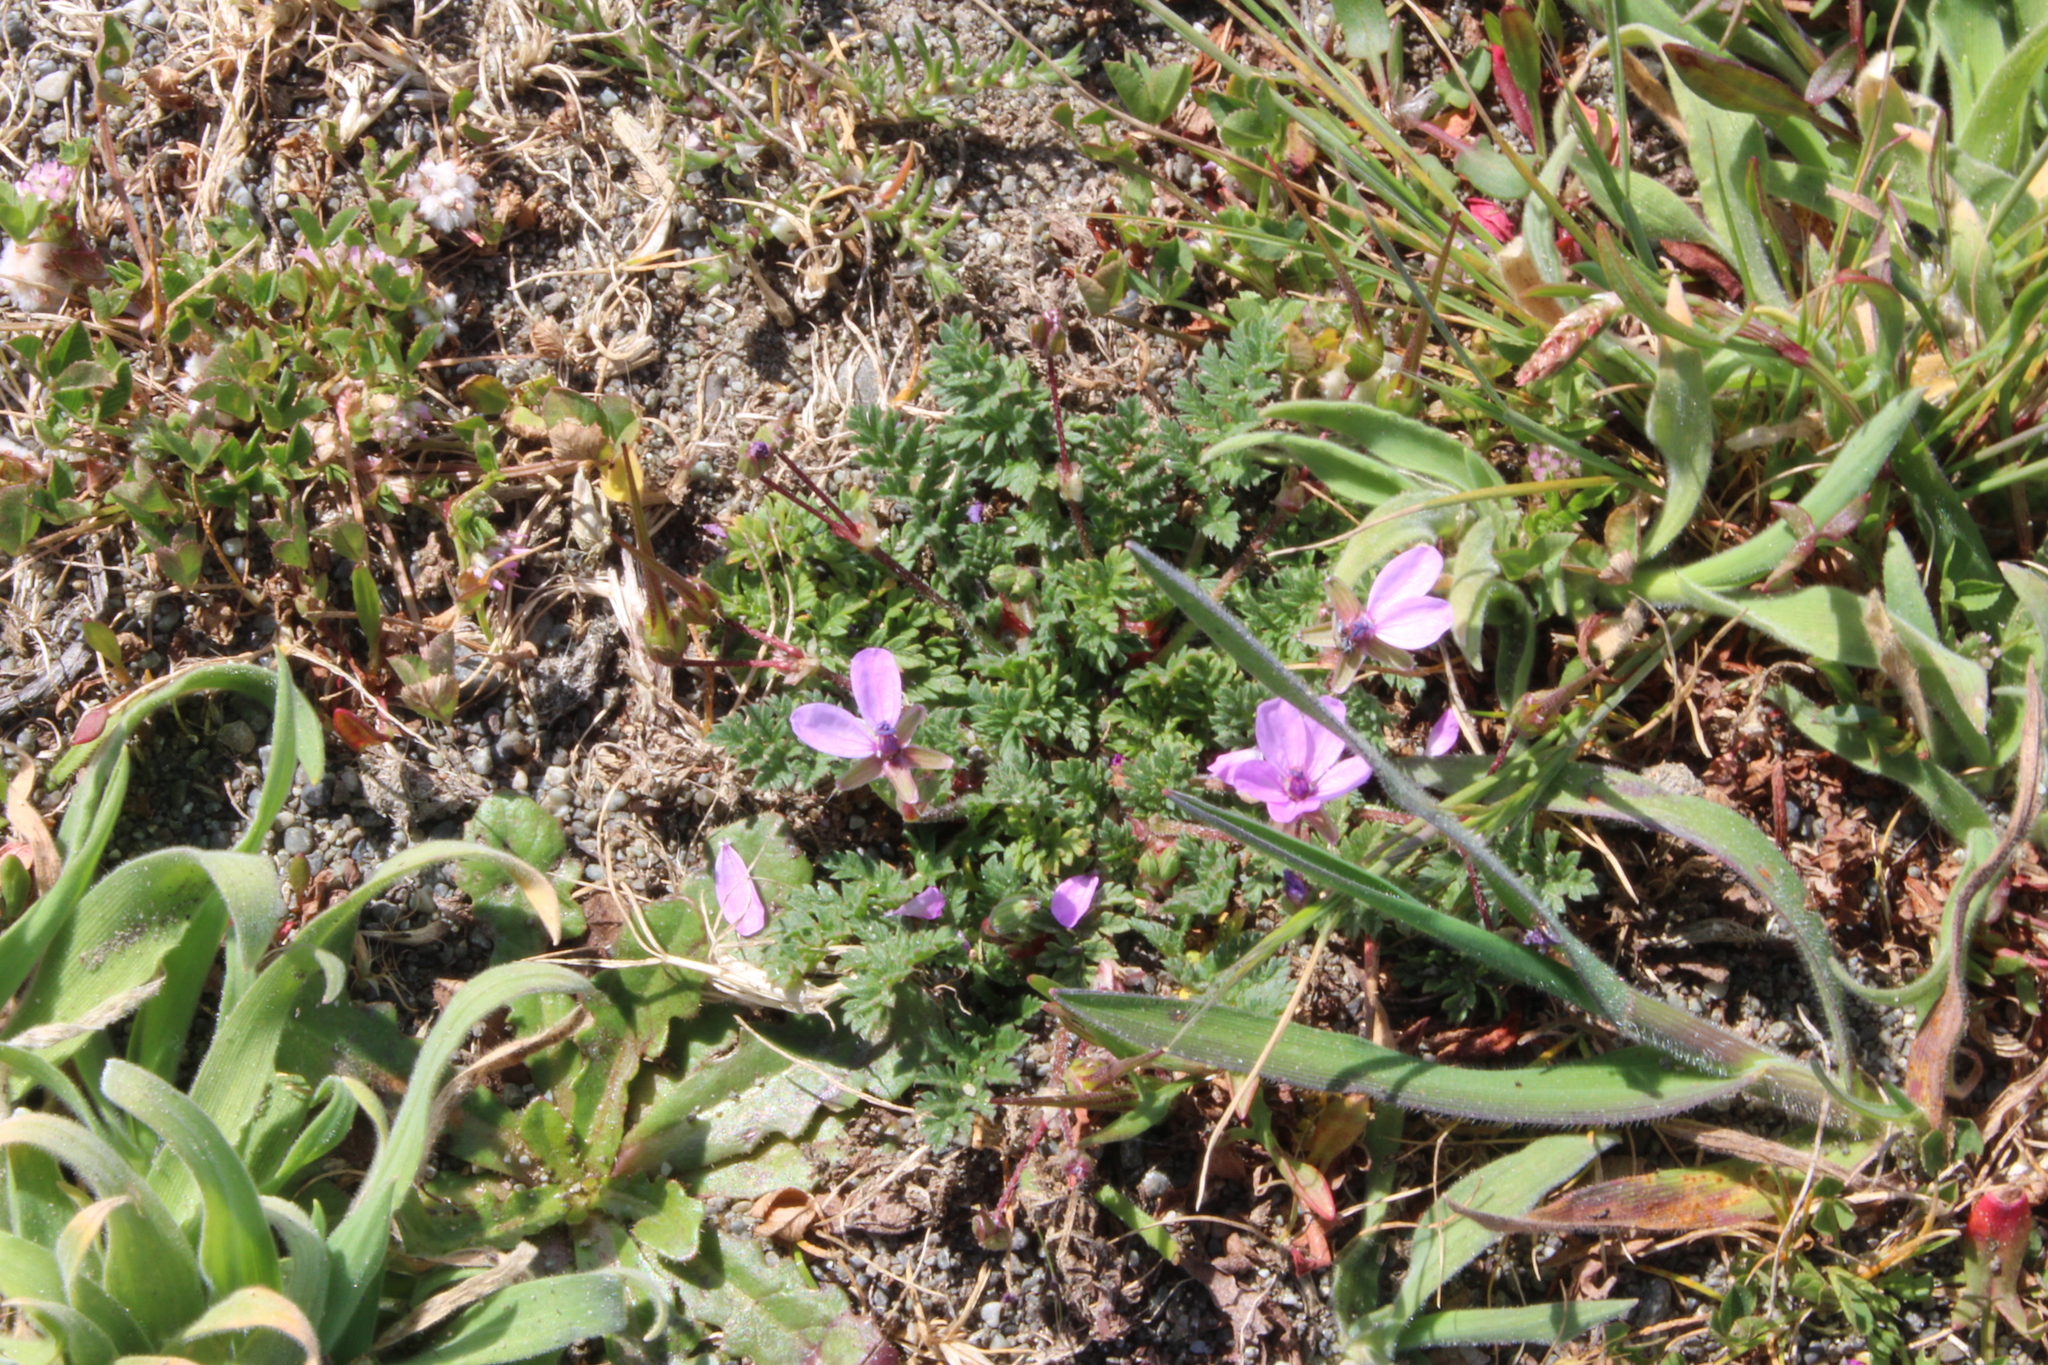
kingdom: Plantae
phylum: Tracheophyta
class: Magnoliopsida
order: Geraniales
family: Geraniaceae
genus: Erodium
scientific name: Erodium cicutarium
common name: Common stork's-bill
